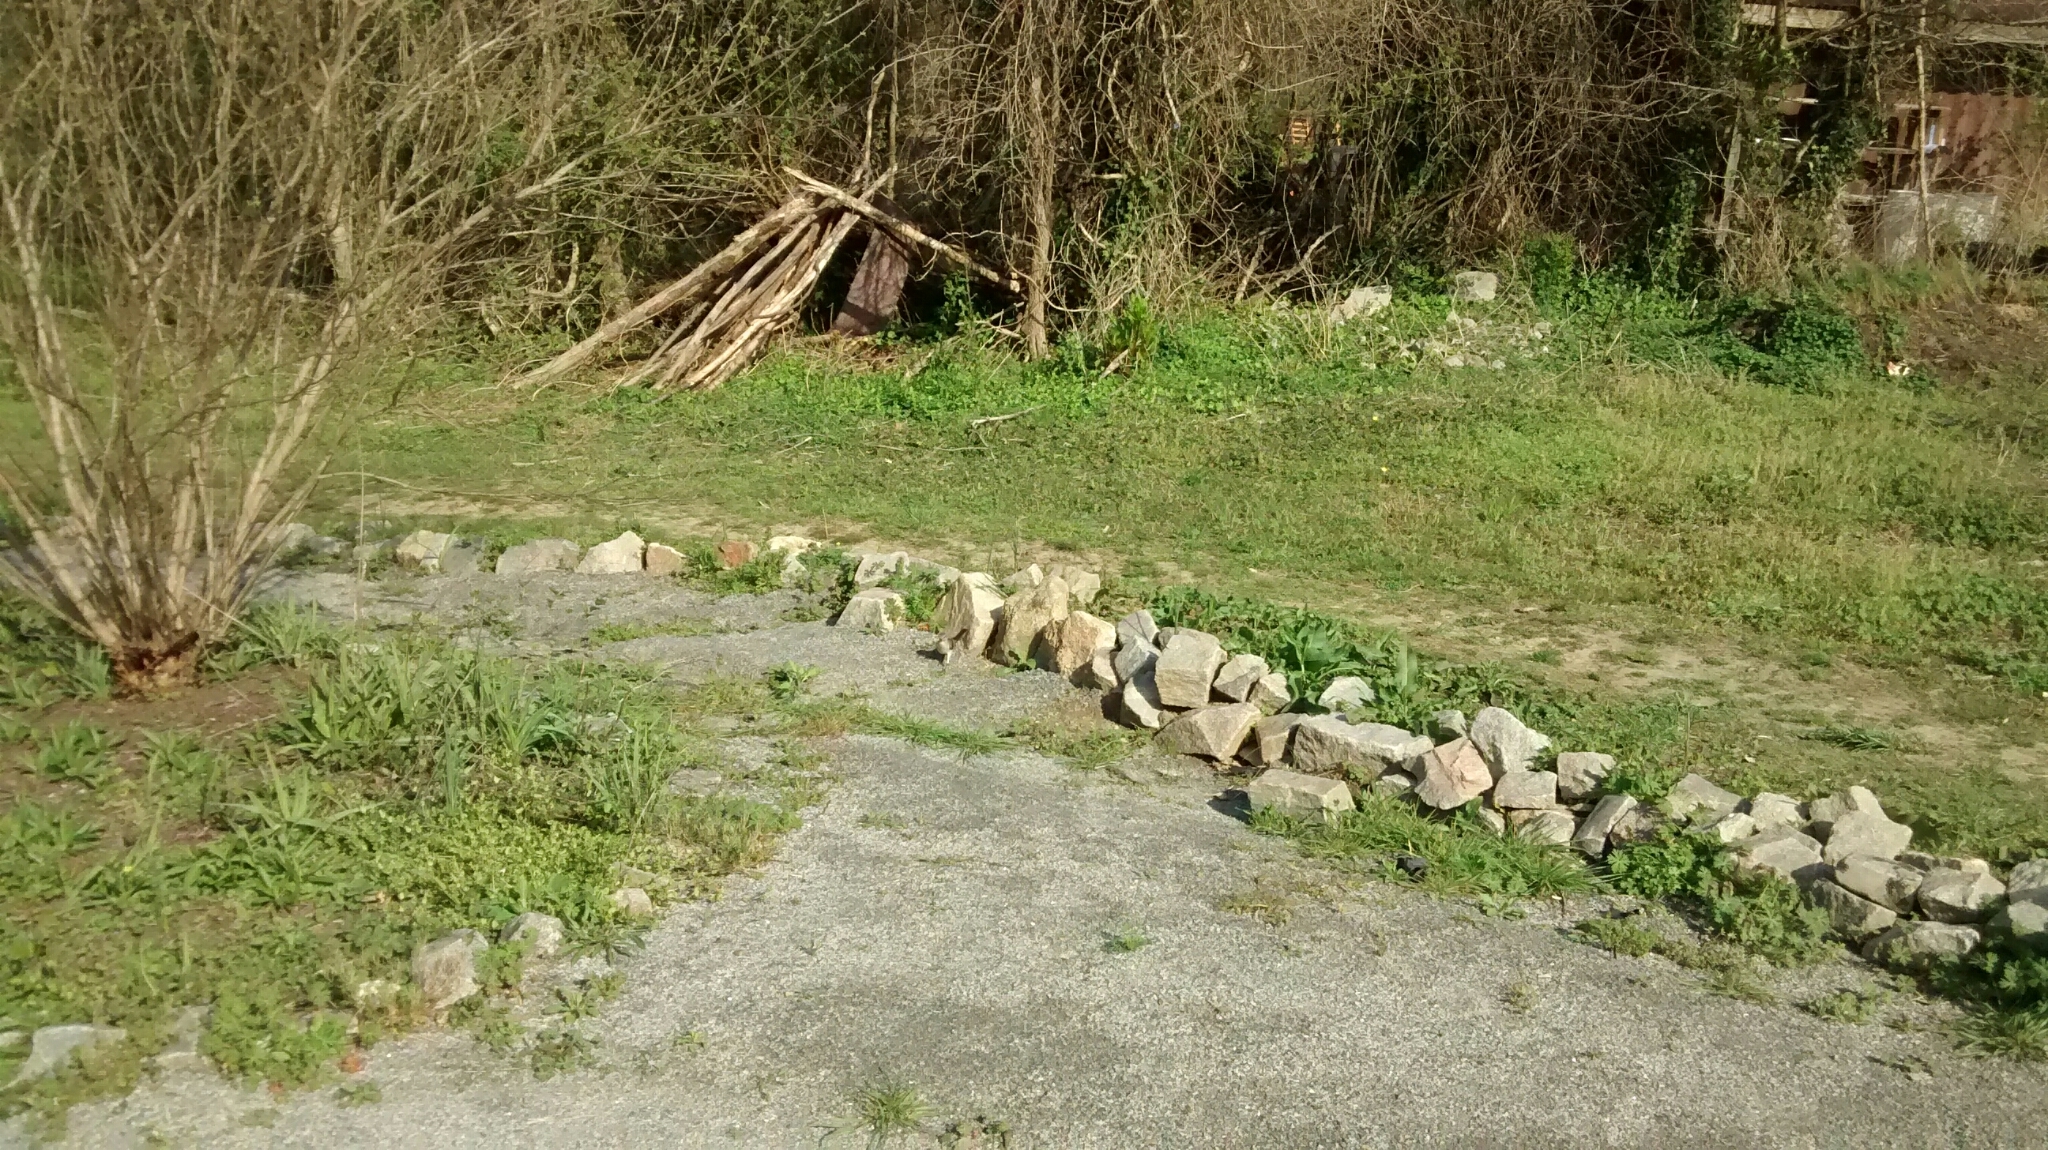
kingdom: Animalia
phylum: Chordata
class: Aves
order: Passeriformes
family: Mimidae
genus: Mimus
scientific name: Mimus polyglottos
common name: Northern mockingbird
